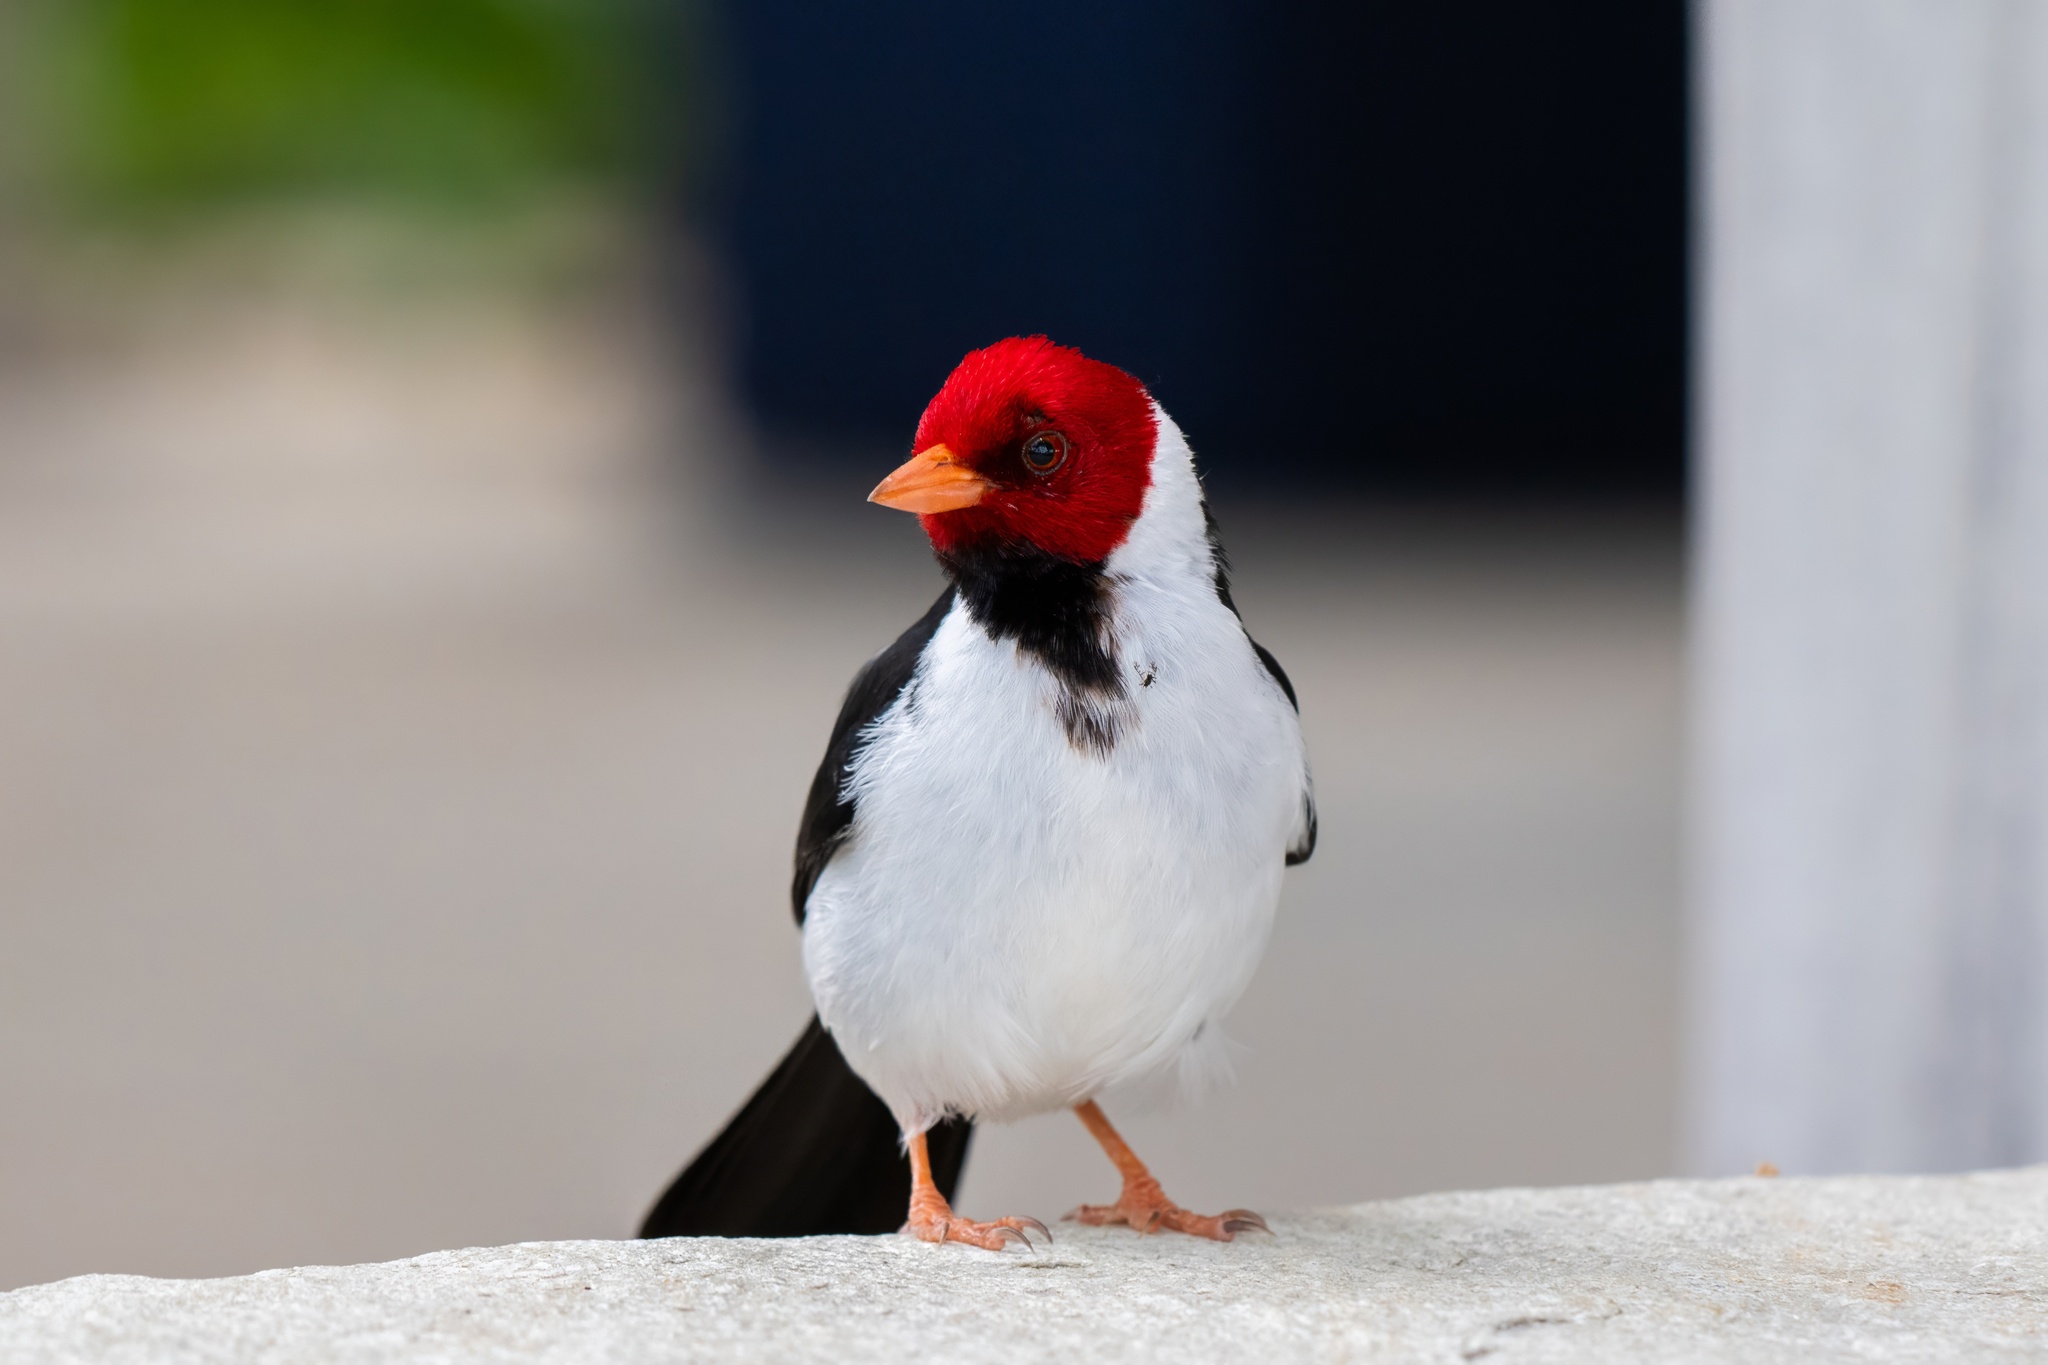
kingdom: Animalia
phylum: Chordata
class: Aves
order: Passeriformes
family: Thraupidae
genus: Paroaria
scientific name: Paroaria capitata
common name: Yellow-billed cardinal
